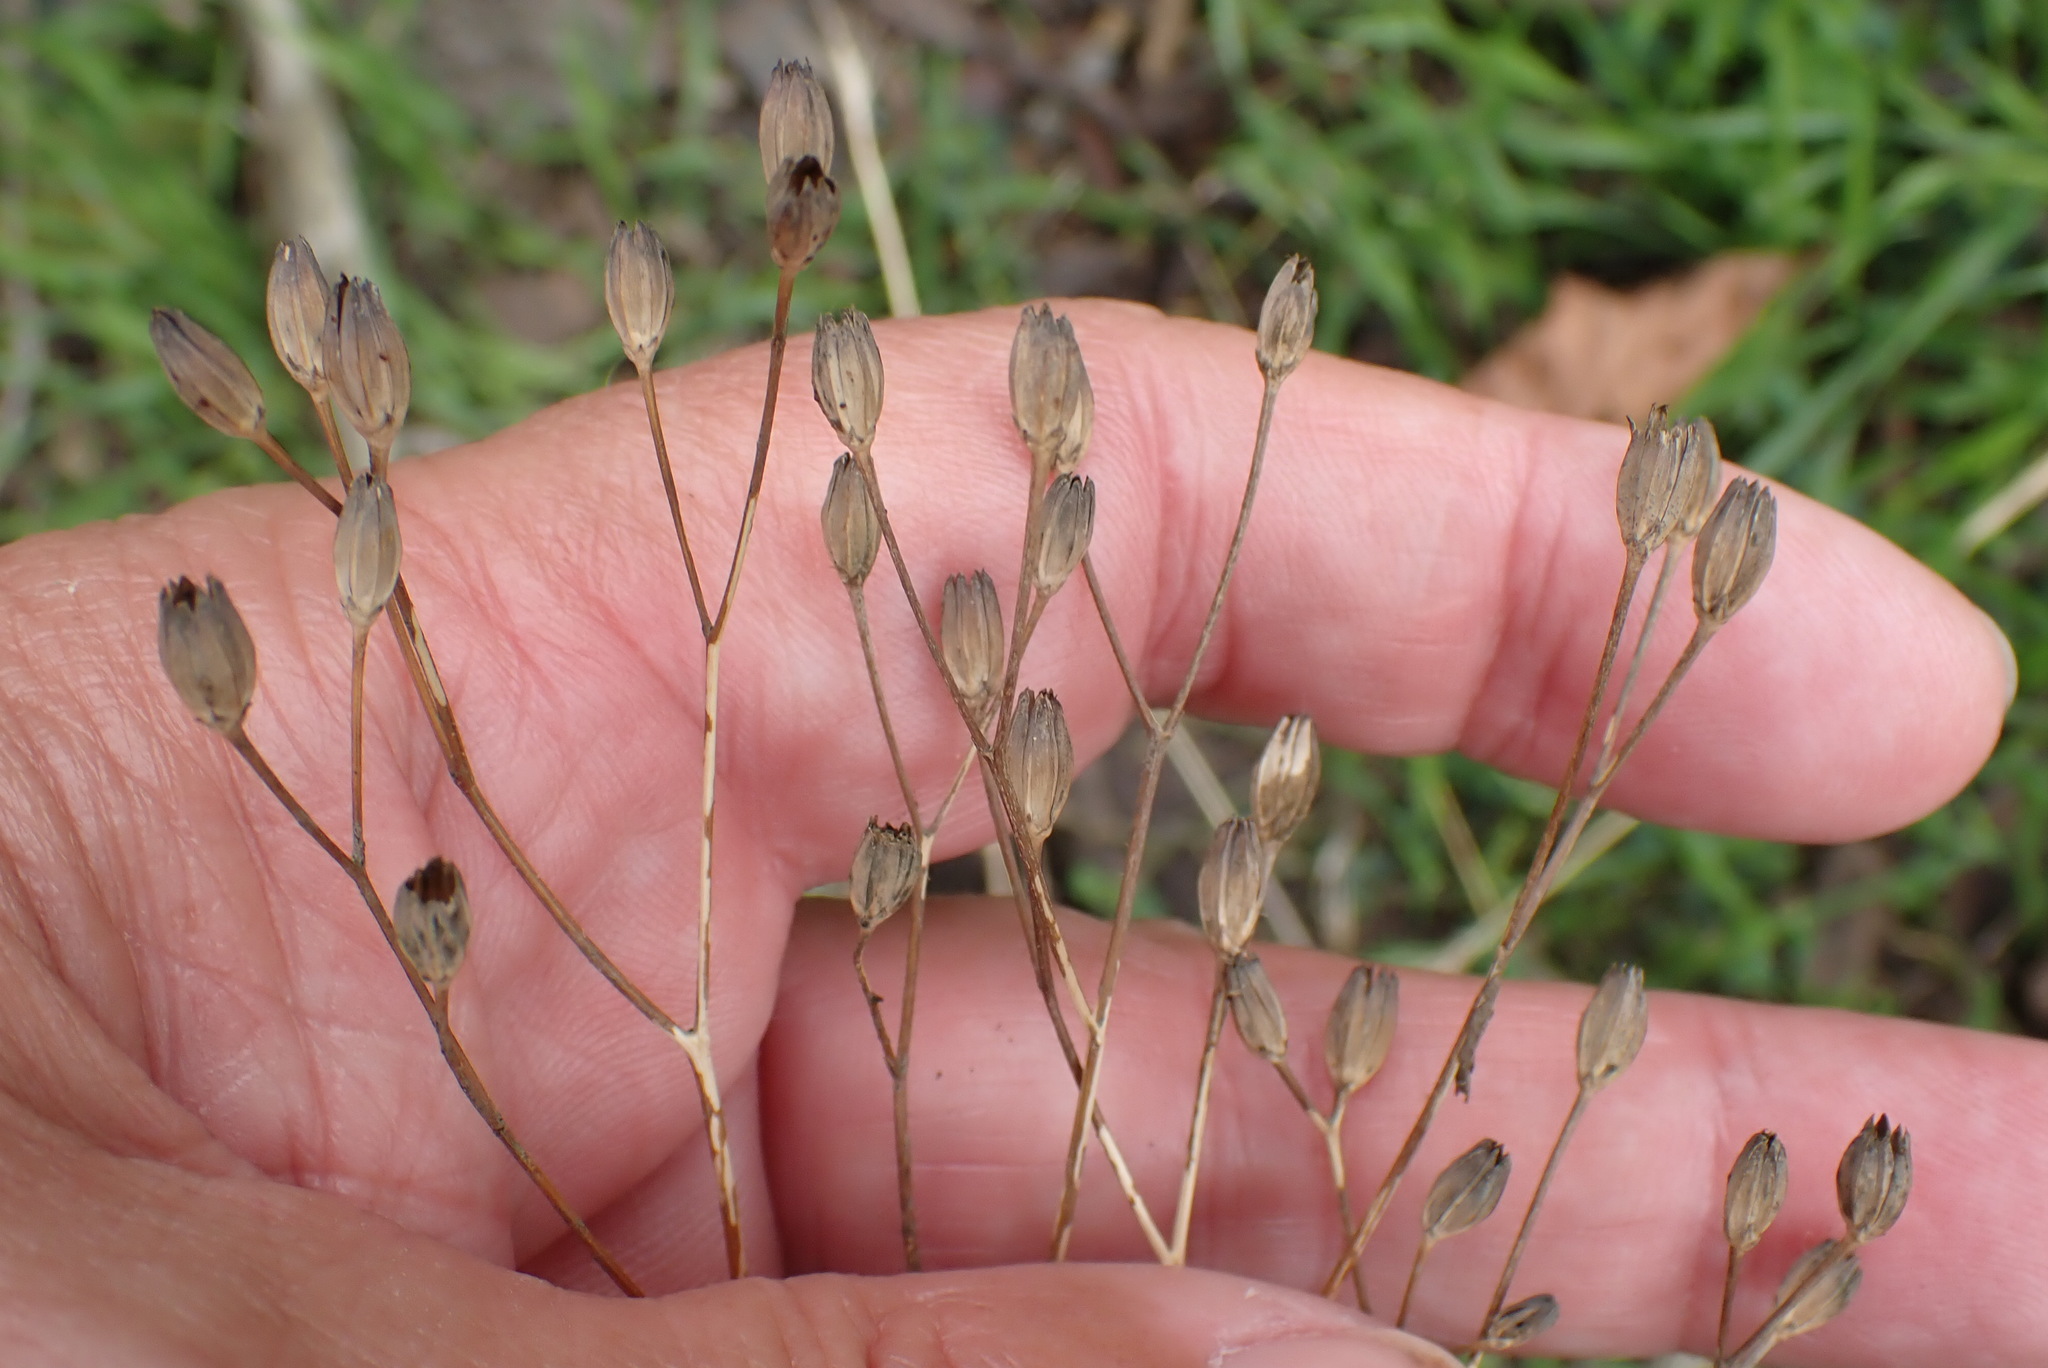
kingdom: Plantae
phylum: Tracheophyta
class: Magnoliopsida
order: Asterales
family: Asteraceae
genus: Lapsana
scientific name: Lapsana communis
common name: Nipplewort
